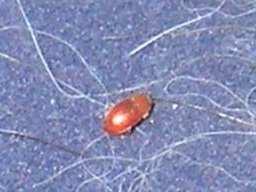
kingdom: Animalia
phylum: Arthropoda
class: Insecta
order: Coleoptera
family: Coccinellidae
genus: Coccidula
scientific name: Coccidula rufa
